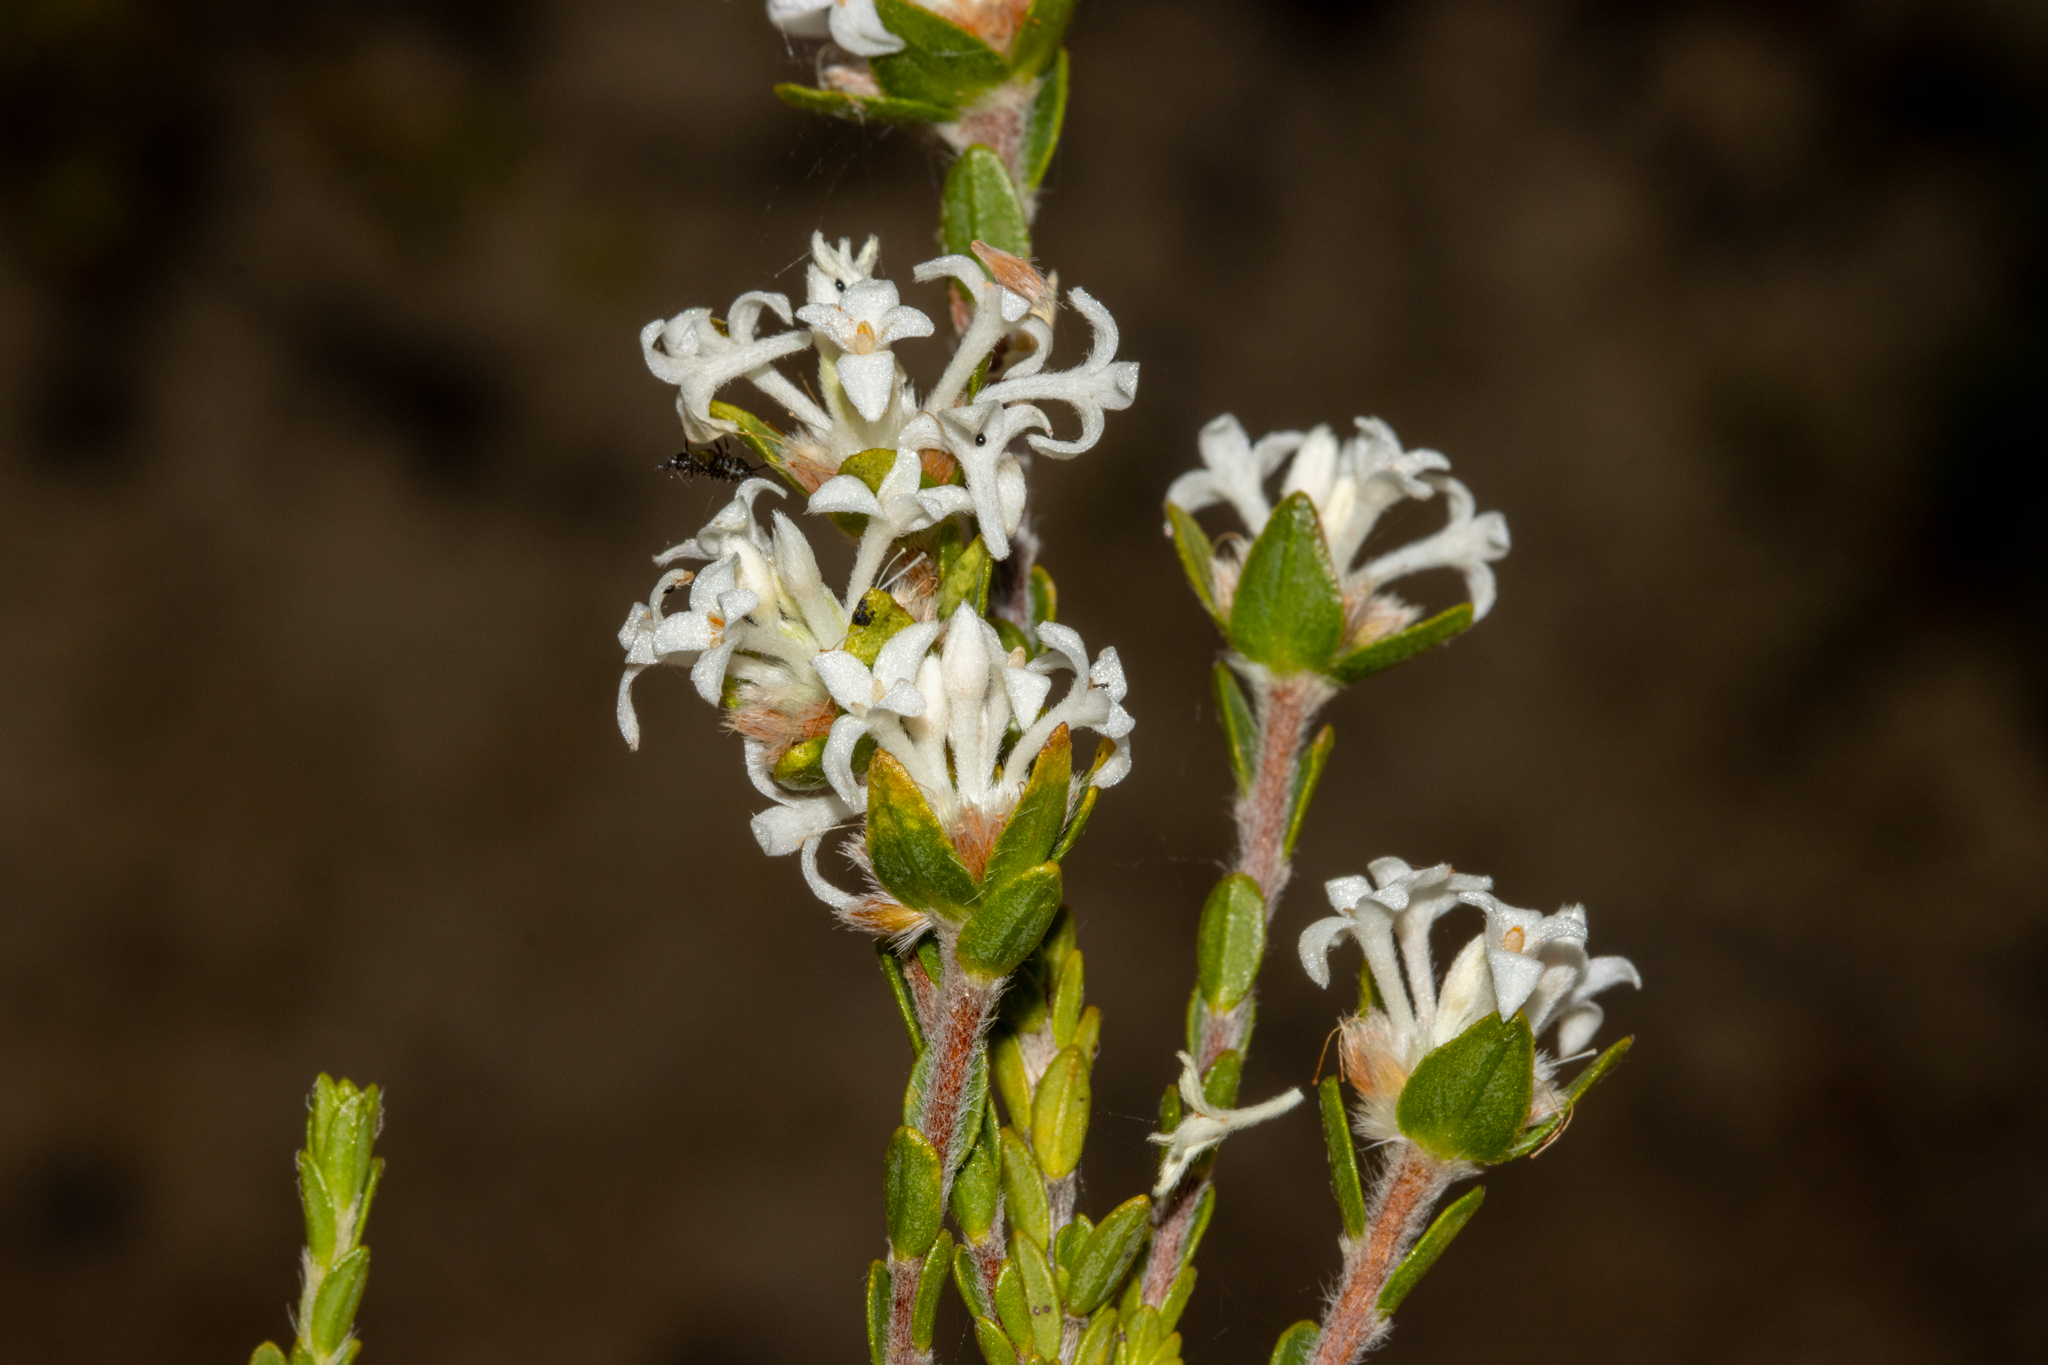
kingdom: Plantae
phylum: Tracheophyta
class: Magnoliopsida
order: Malvales
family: Thymelaeaceae
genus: Pimelea
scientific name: Pimelea phylicoides
